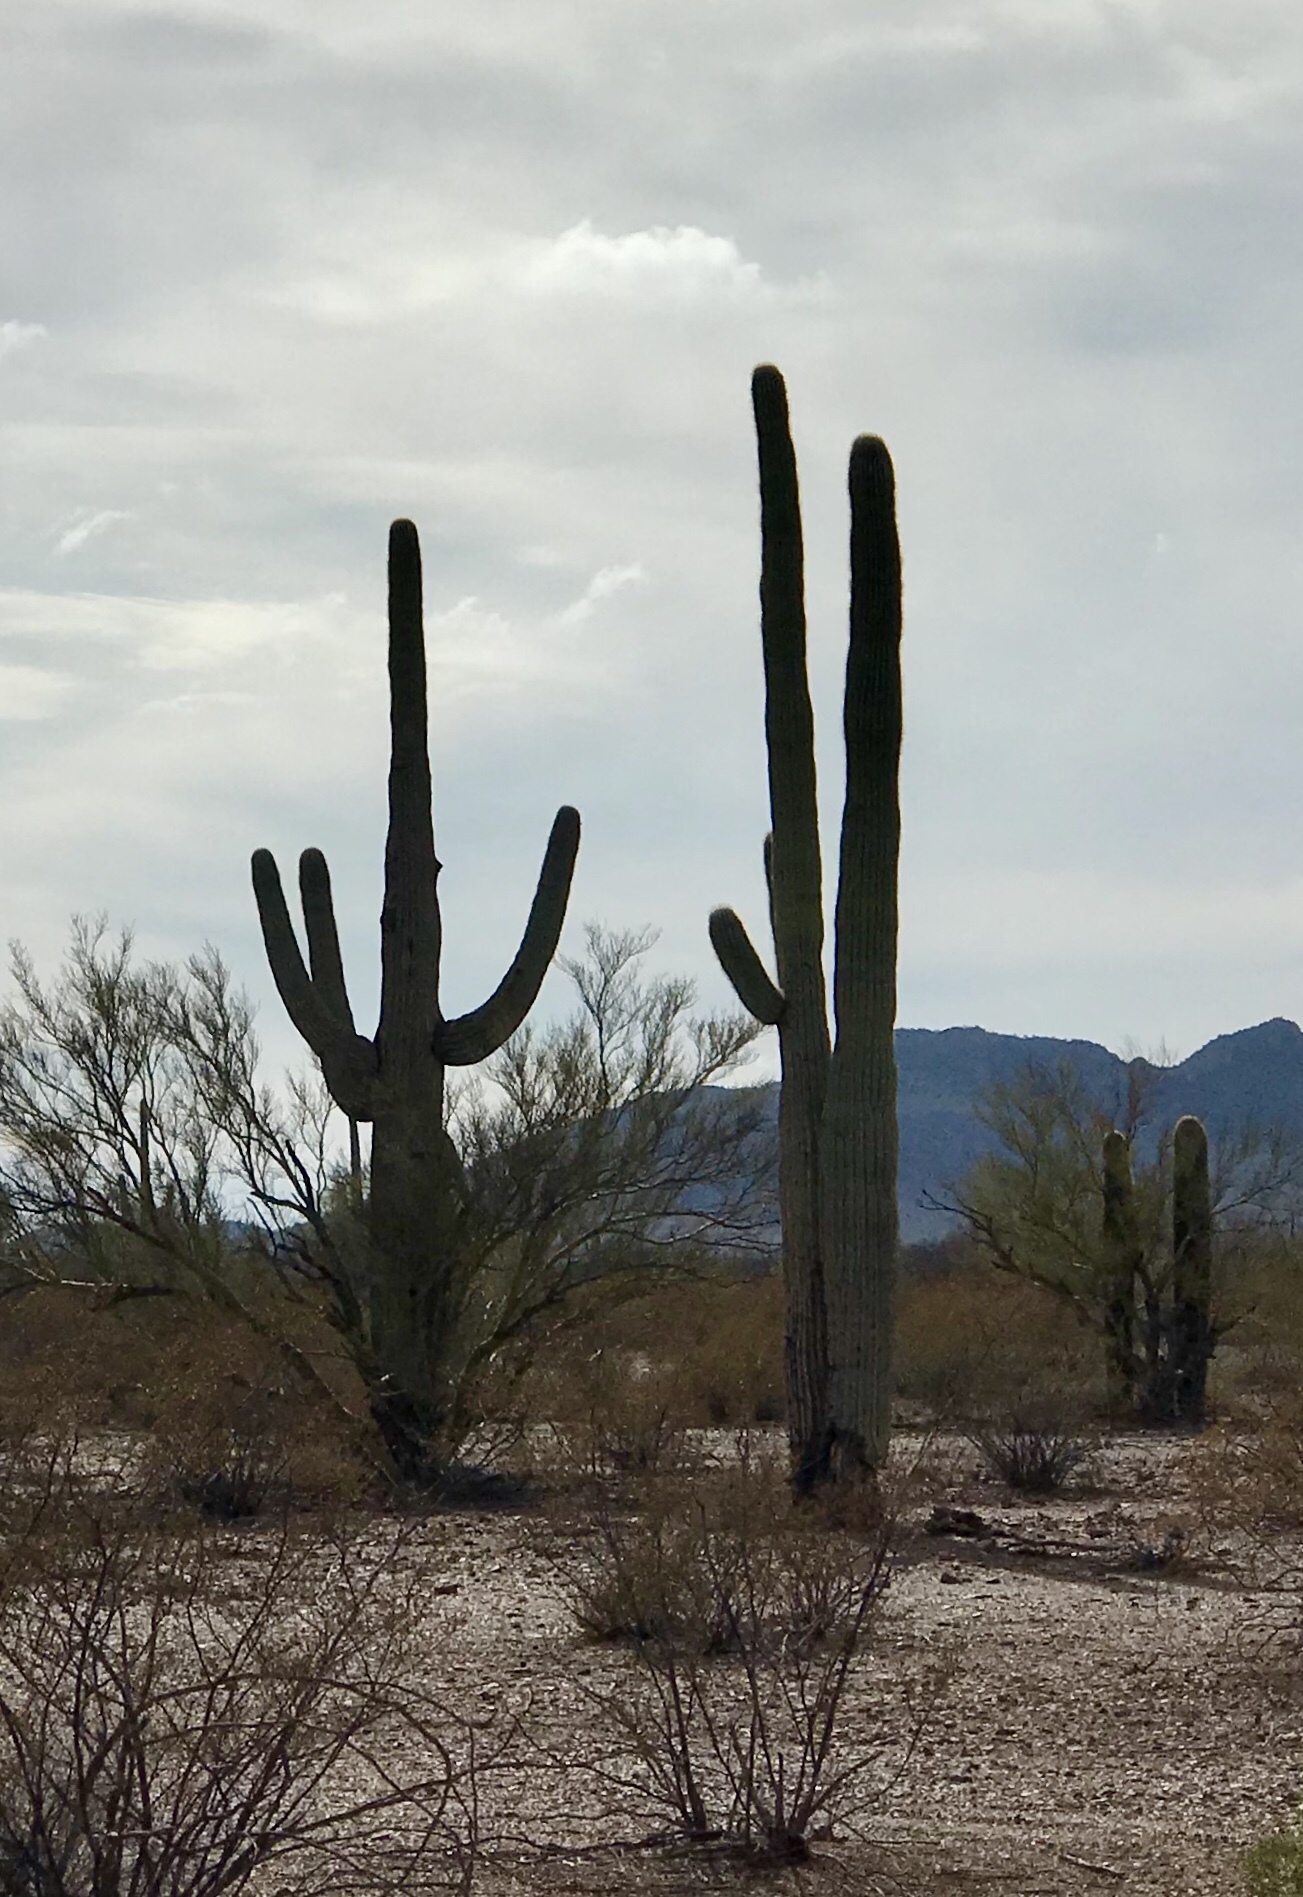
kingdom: Plantae
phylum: Tracheophyta
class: Magnoliopsida
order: Caryophyllales
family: Cactaceae
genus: Carnegiea
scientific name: Carnegiea gigantea
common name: Saguaro
